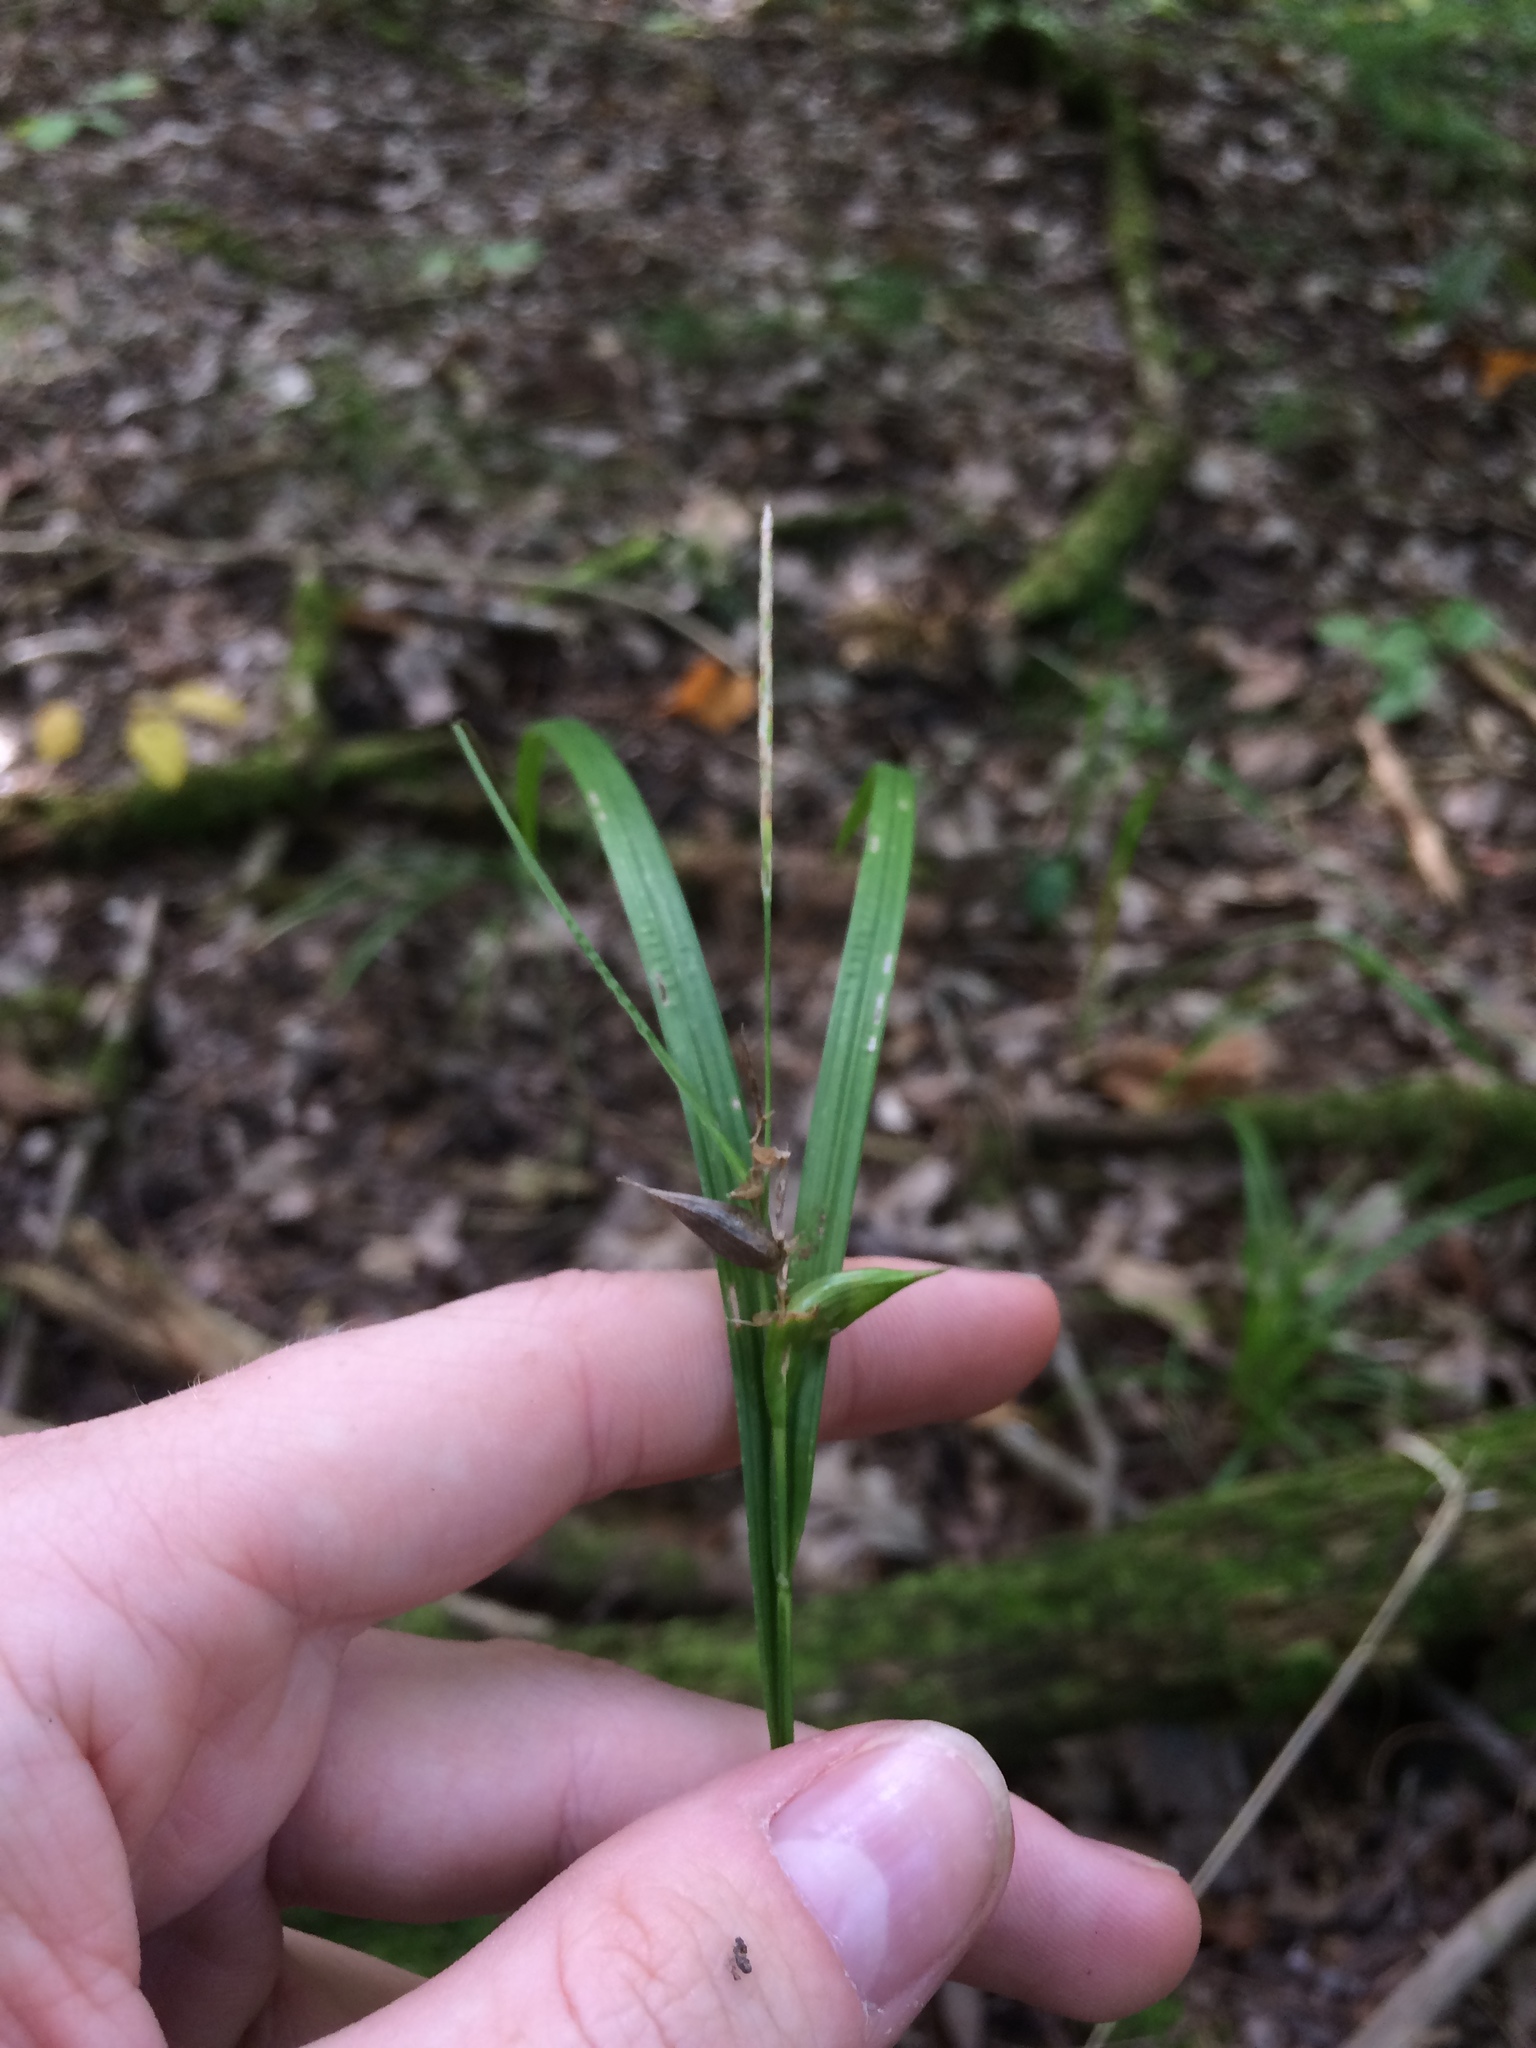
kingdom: Plantae
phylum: Tracheophyta
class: Liliopsida
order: Poales
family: Cyperaceae
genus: Carex
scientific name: Carex intumescens
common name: Greater bladder sedge
